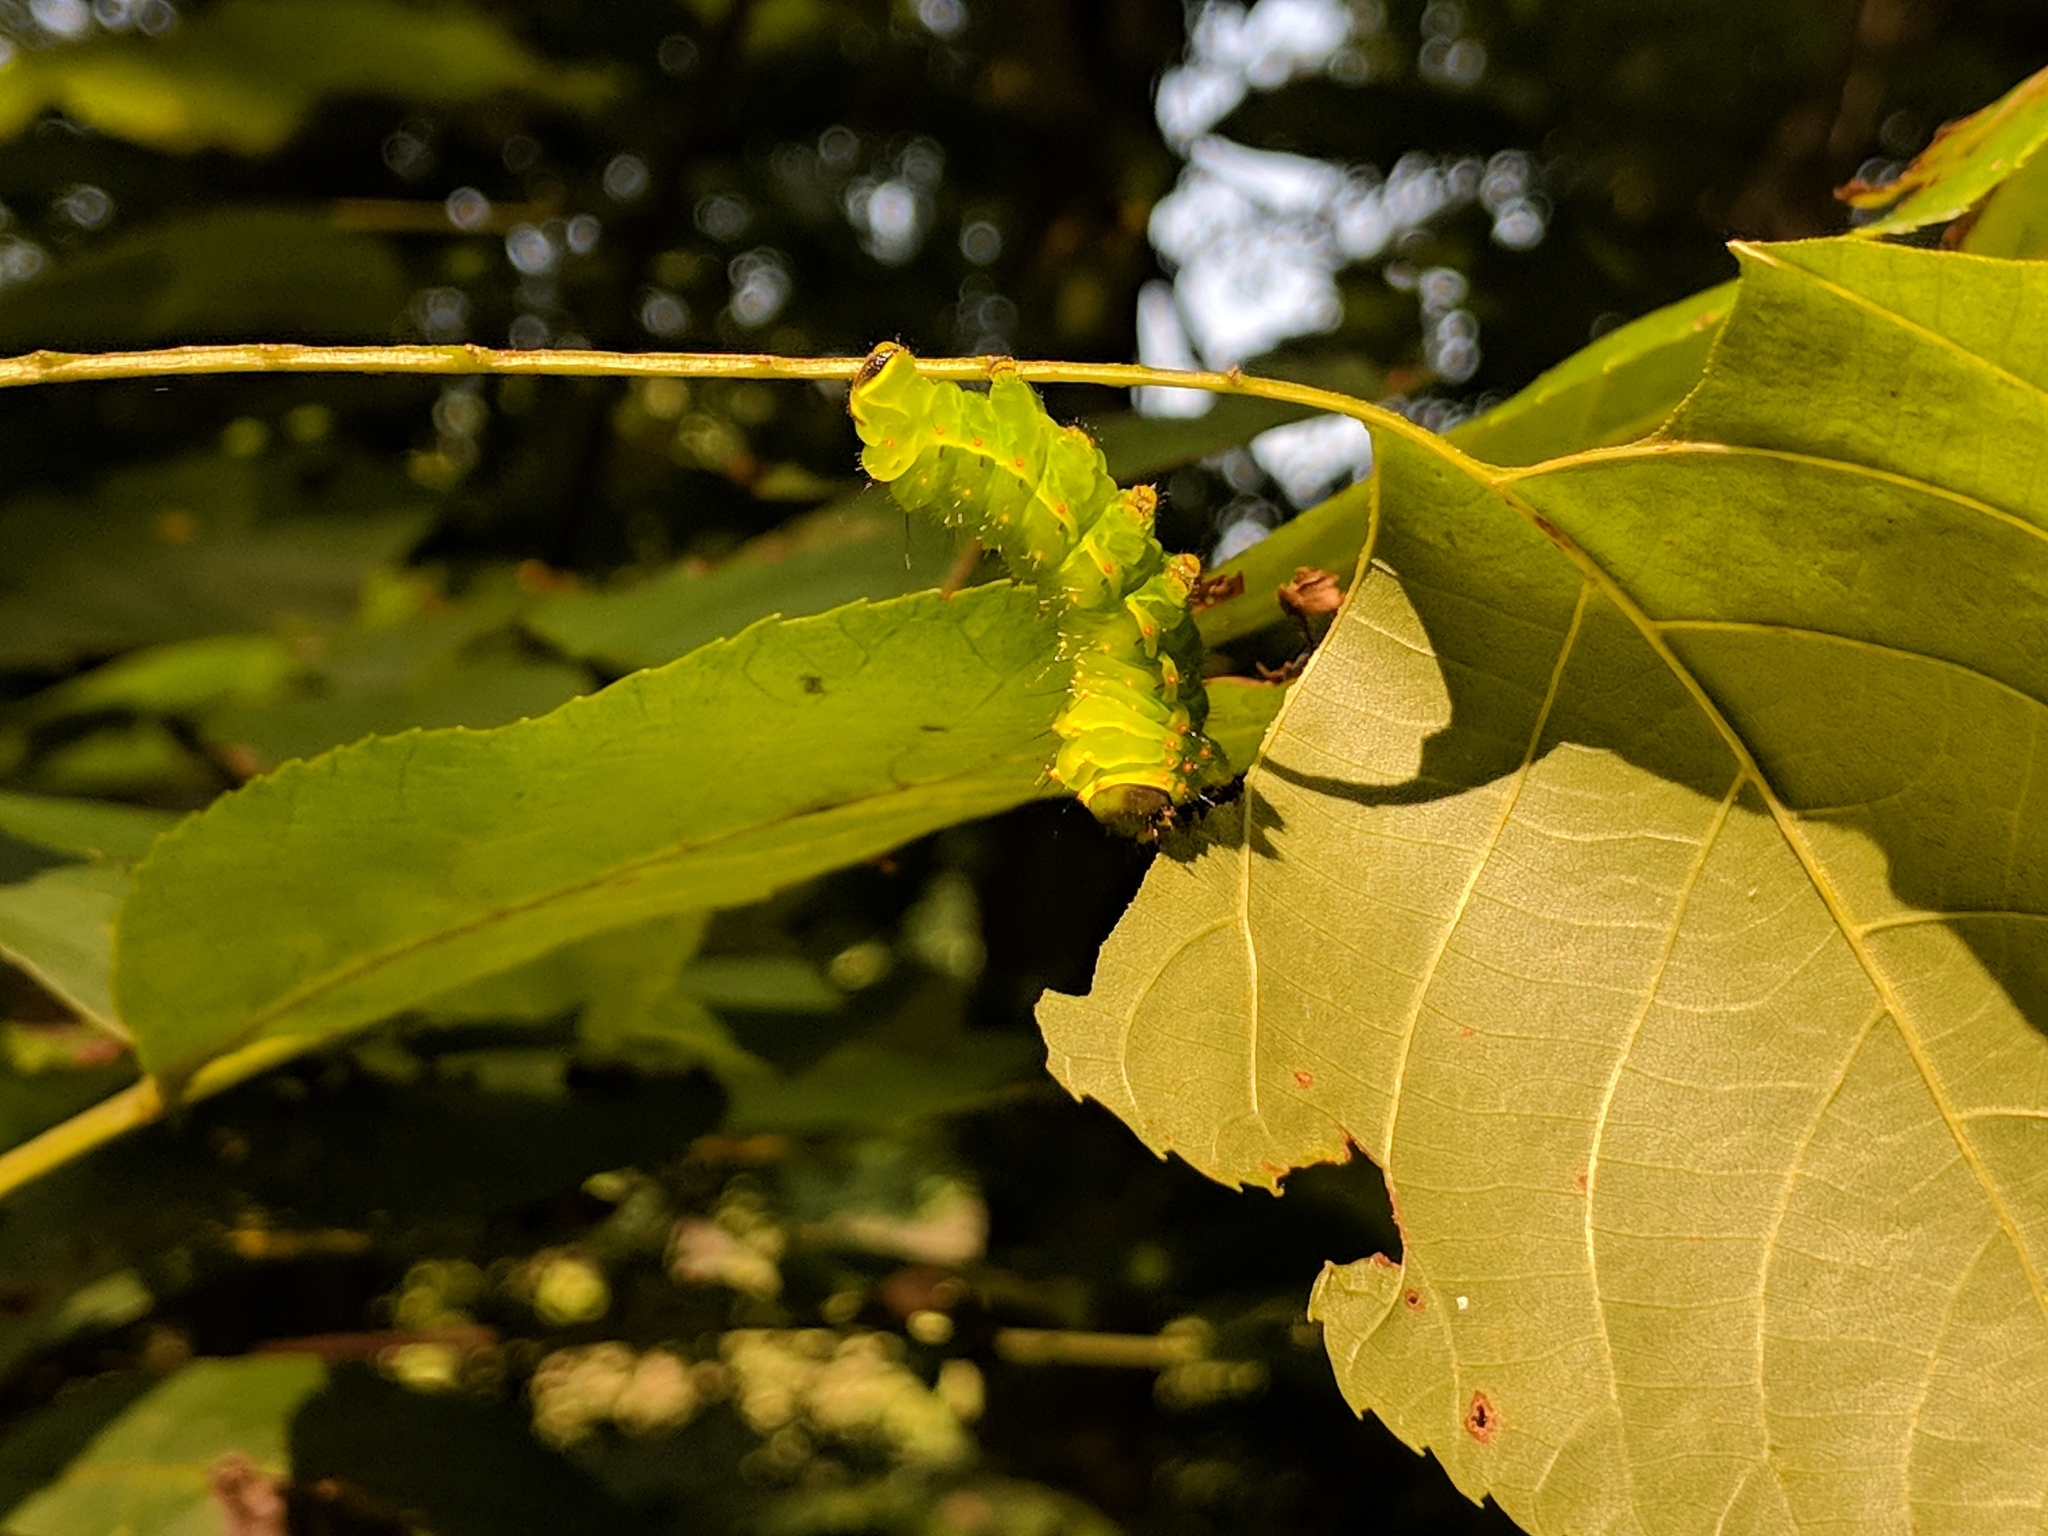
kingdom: Animalia
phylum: Arthropoda
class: Insecta
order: Lepidoptera
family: Saturniidae
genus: Actias
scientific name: Actias luna
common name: Luna moth
